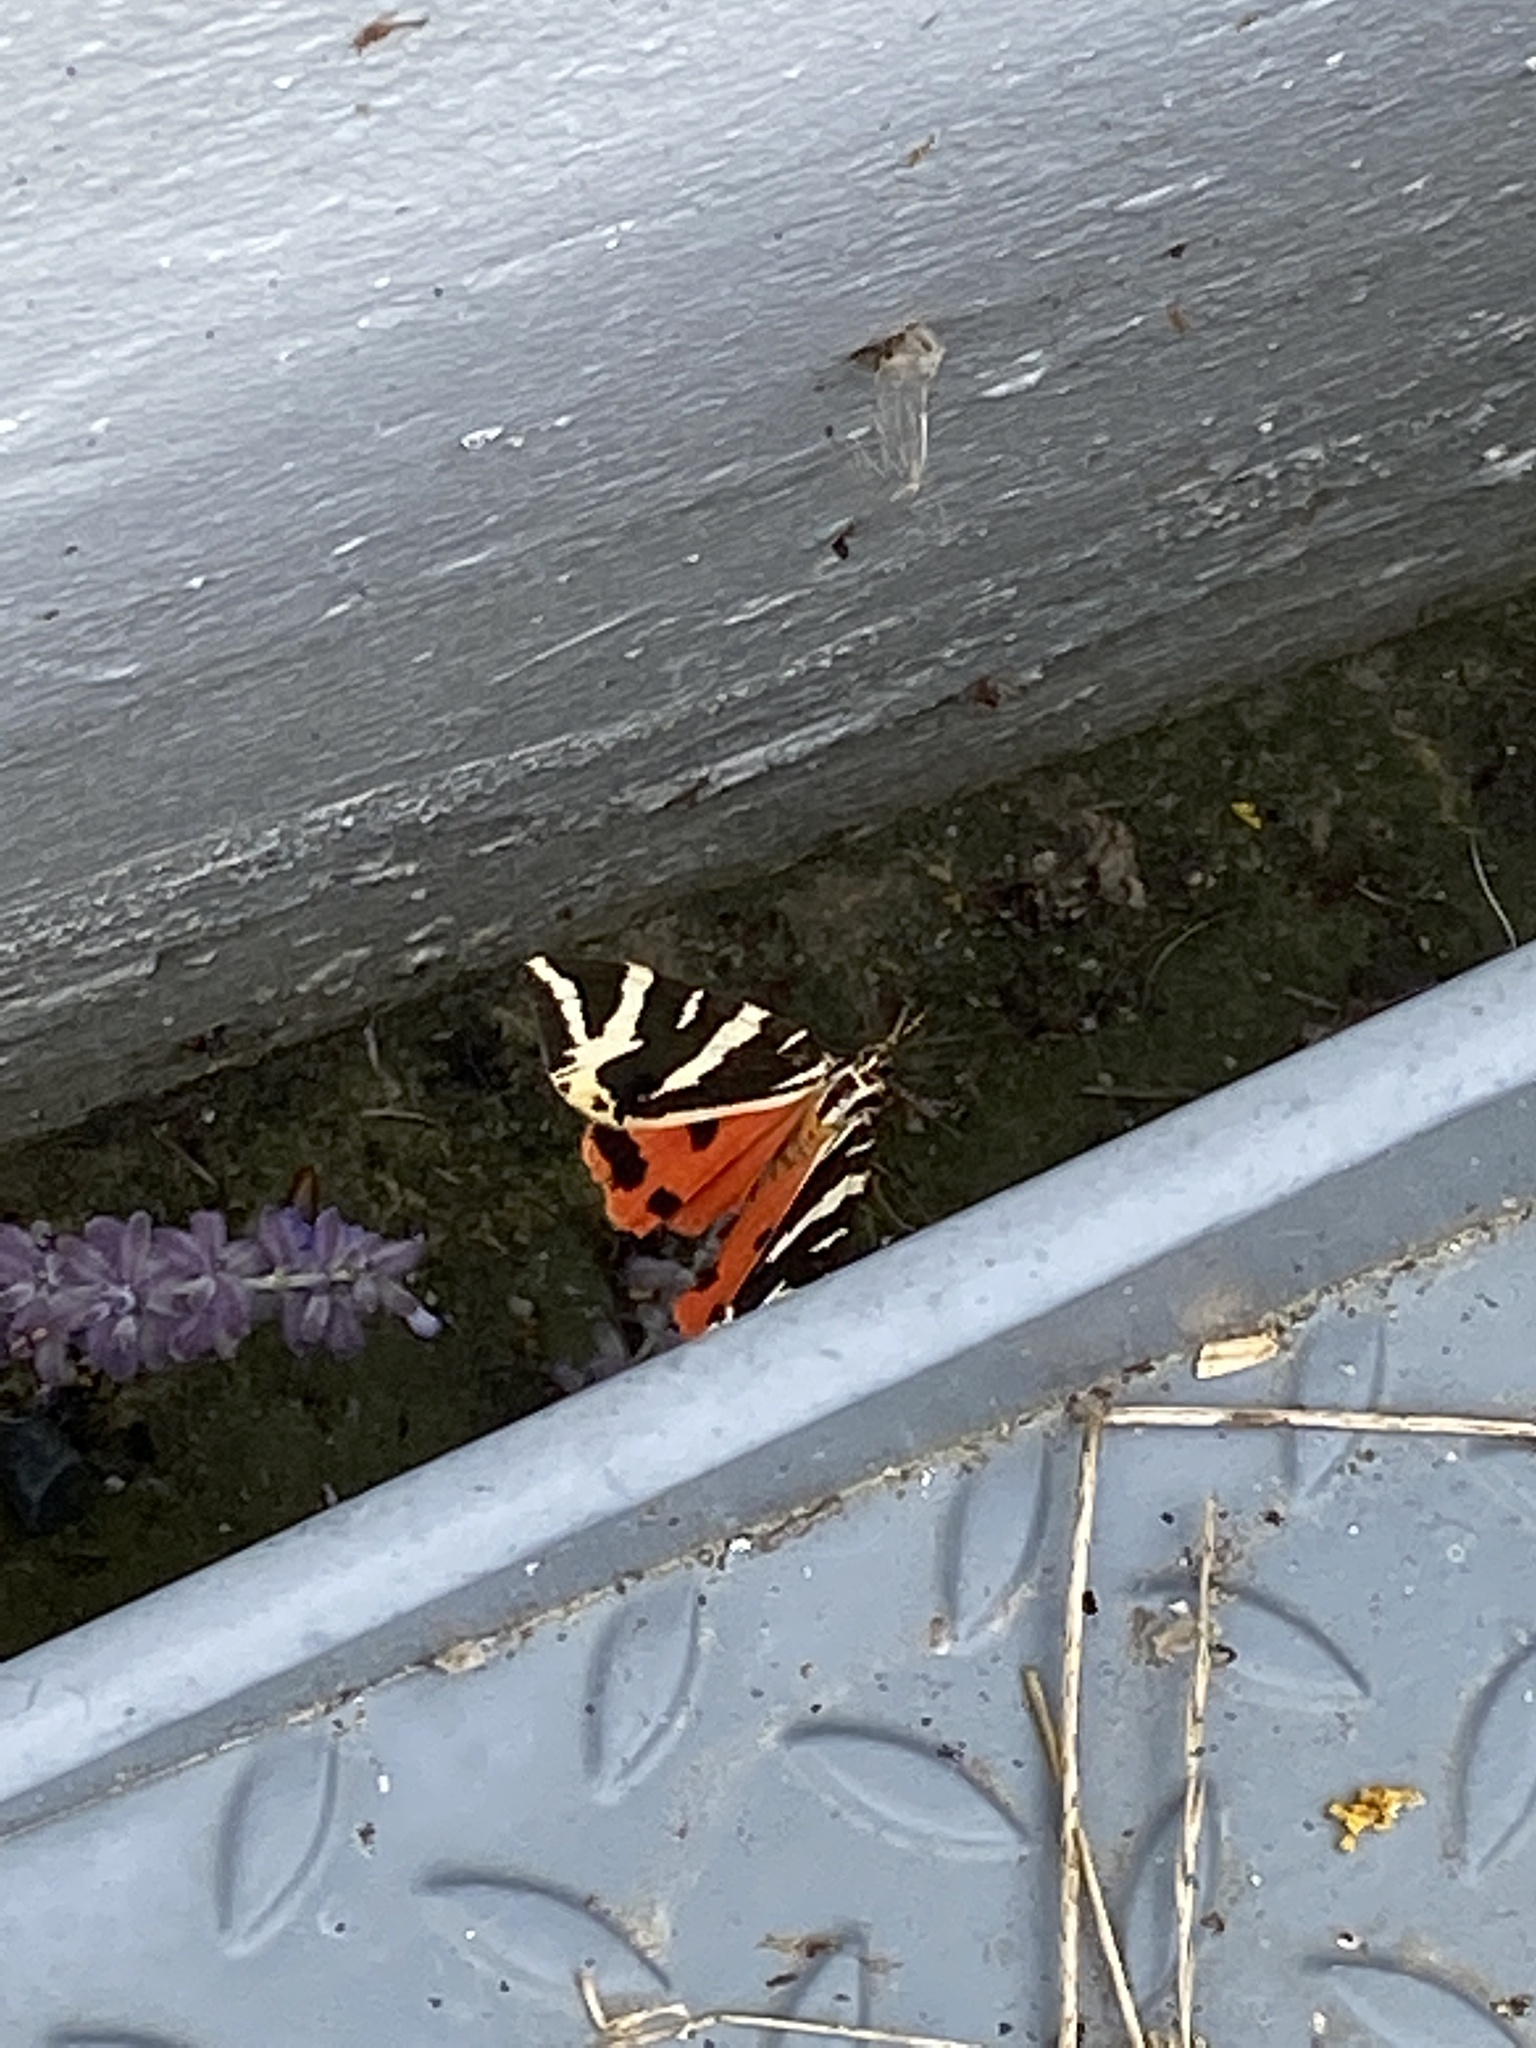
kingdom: Animalia
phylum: Arthropoda
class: Insecta
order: Lepidoptera
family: Erebidae
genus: Euplagia
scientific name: Euplagia quadripunctaria
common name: Jersey tiger
